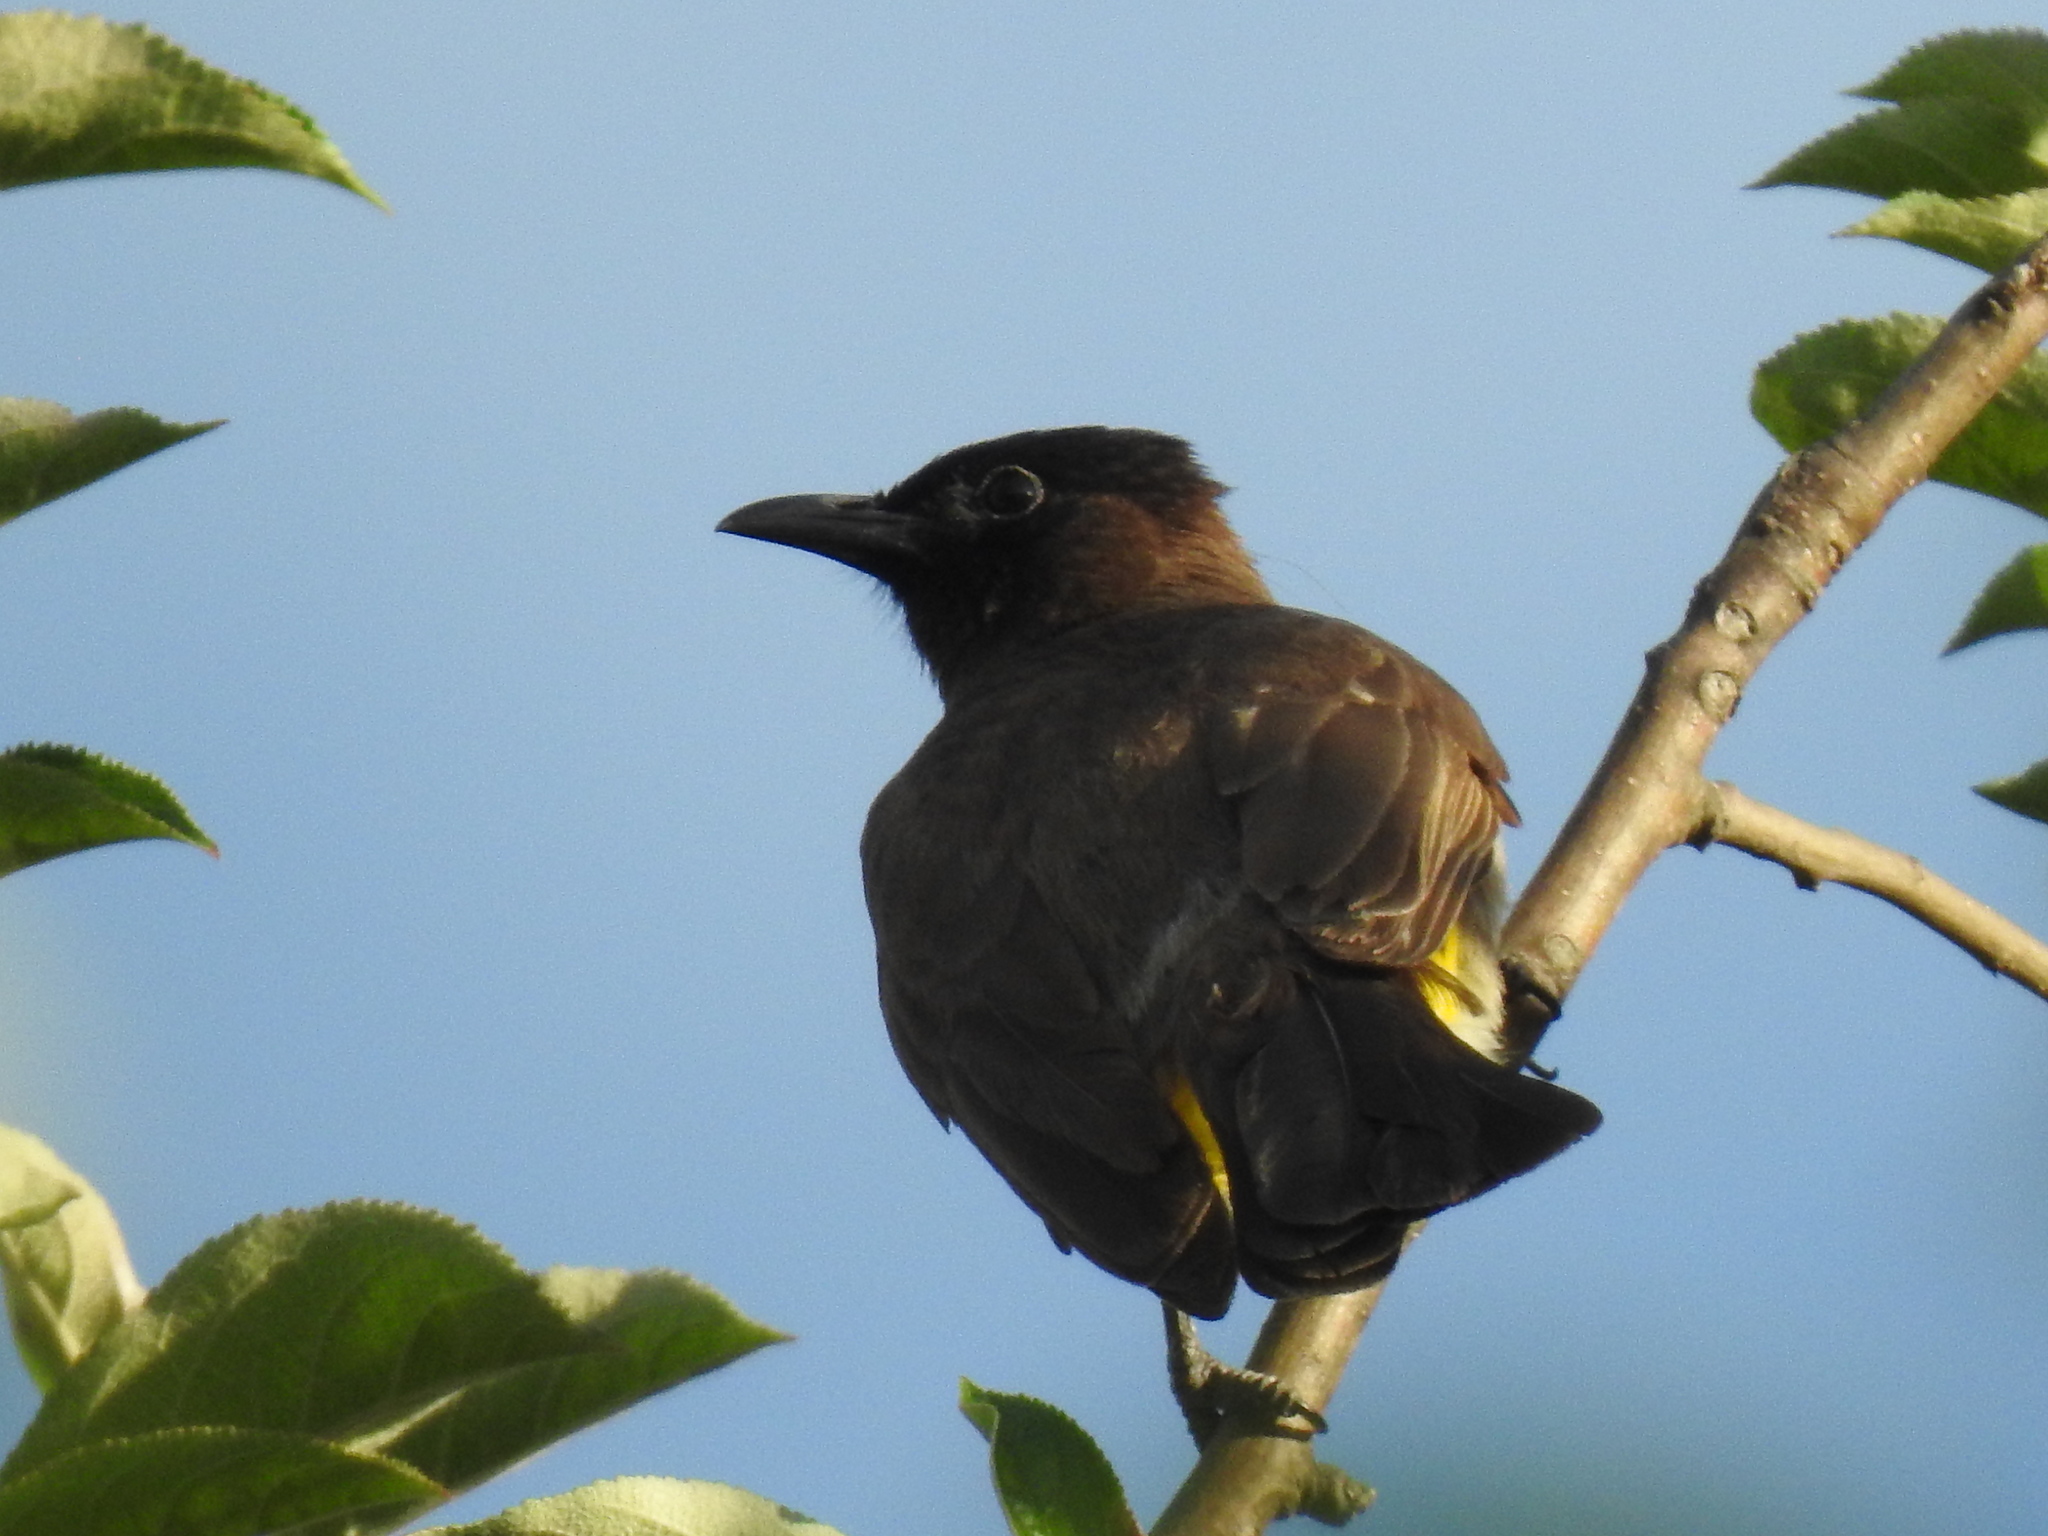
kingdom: Animalia
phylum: Chordata
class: Aves
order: Passeriformes
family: Pycnonotidae
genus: Pycnonotus
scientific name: Pycnonotus barbatus
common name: Common bulbul
